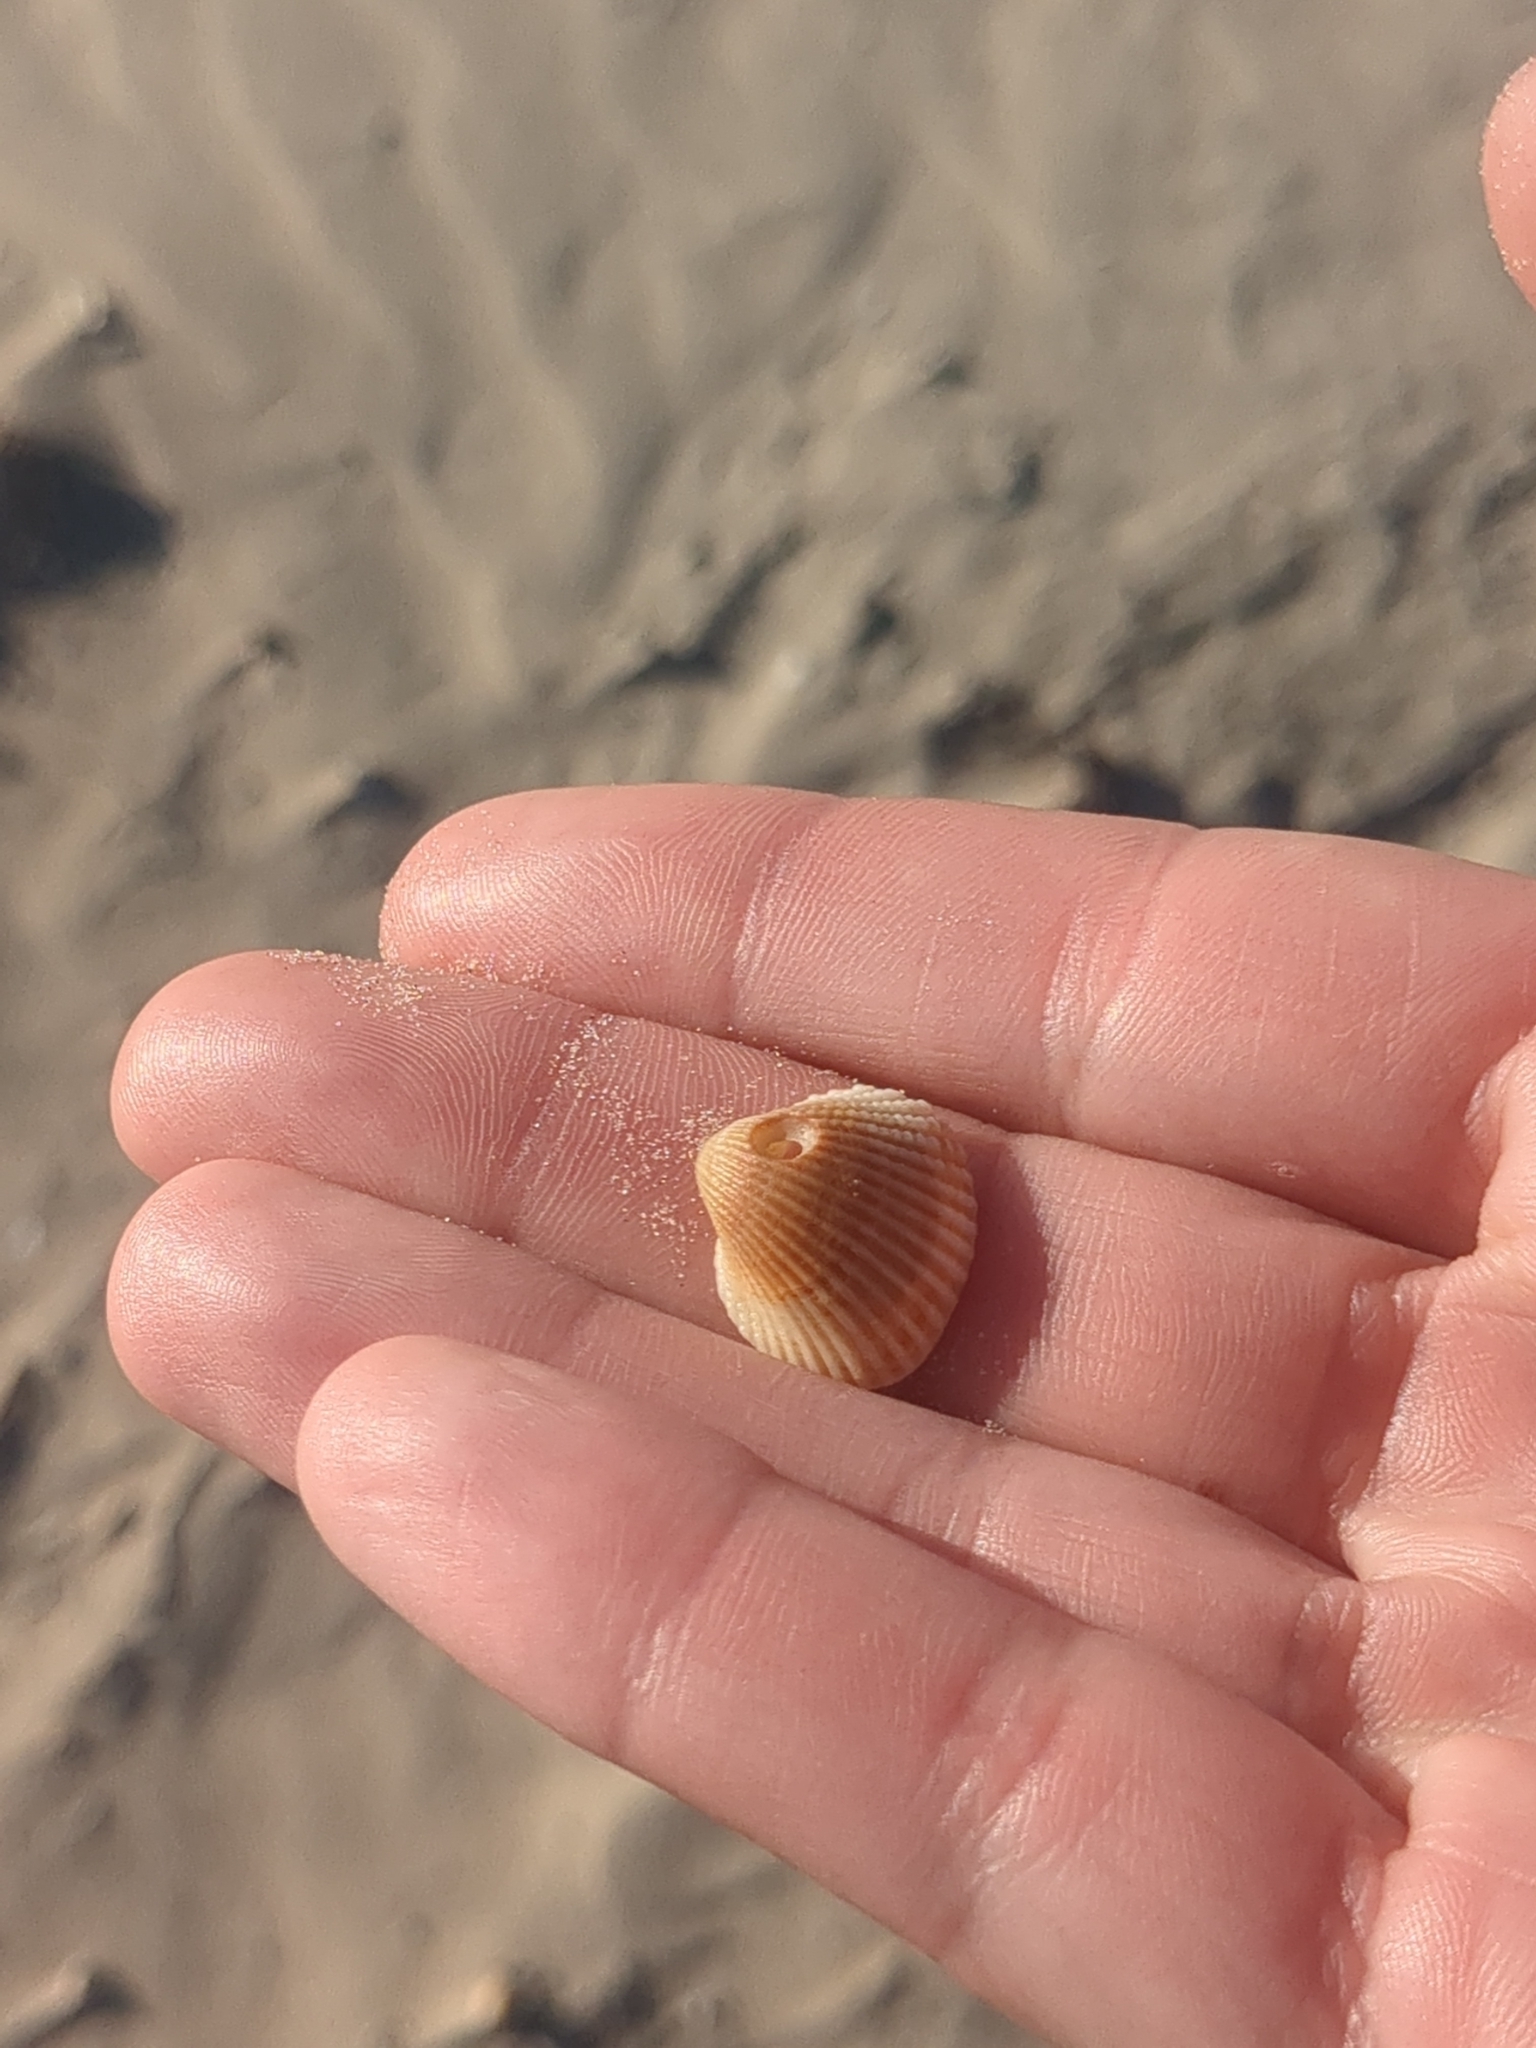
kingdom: Animalia
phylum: Mollusca
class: Bivalvia
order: Arcida
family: Arcidae
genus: Anadara
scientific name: Anadara chemnitzii
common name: Chemnitz's triangular ark
